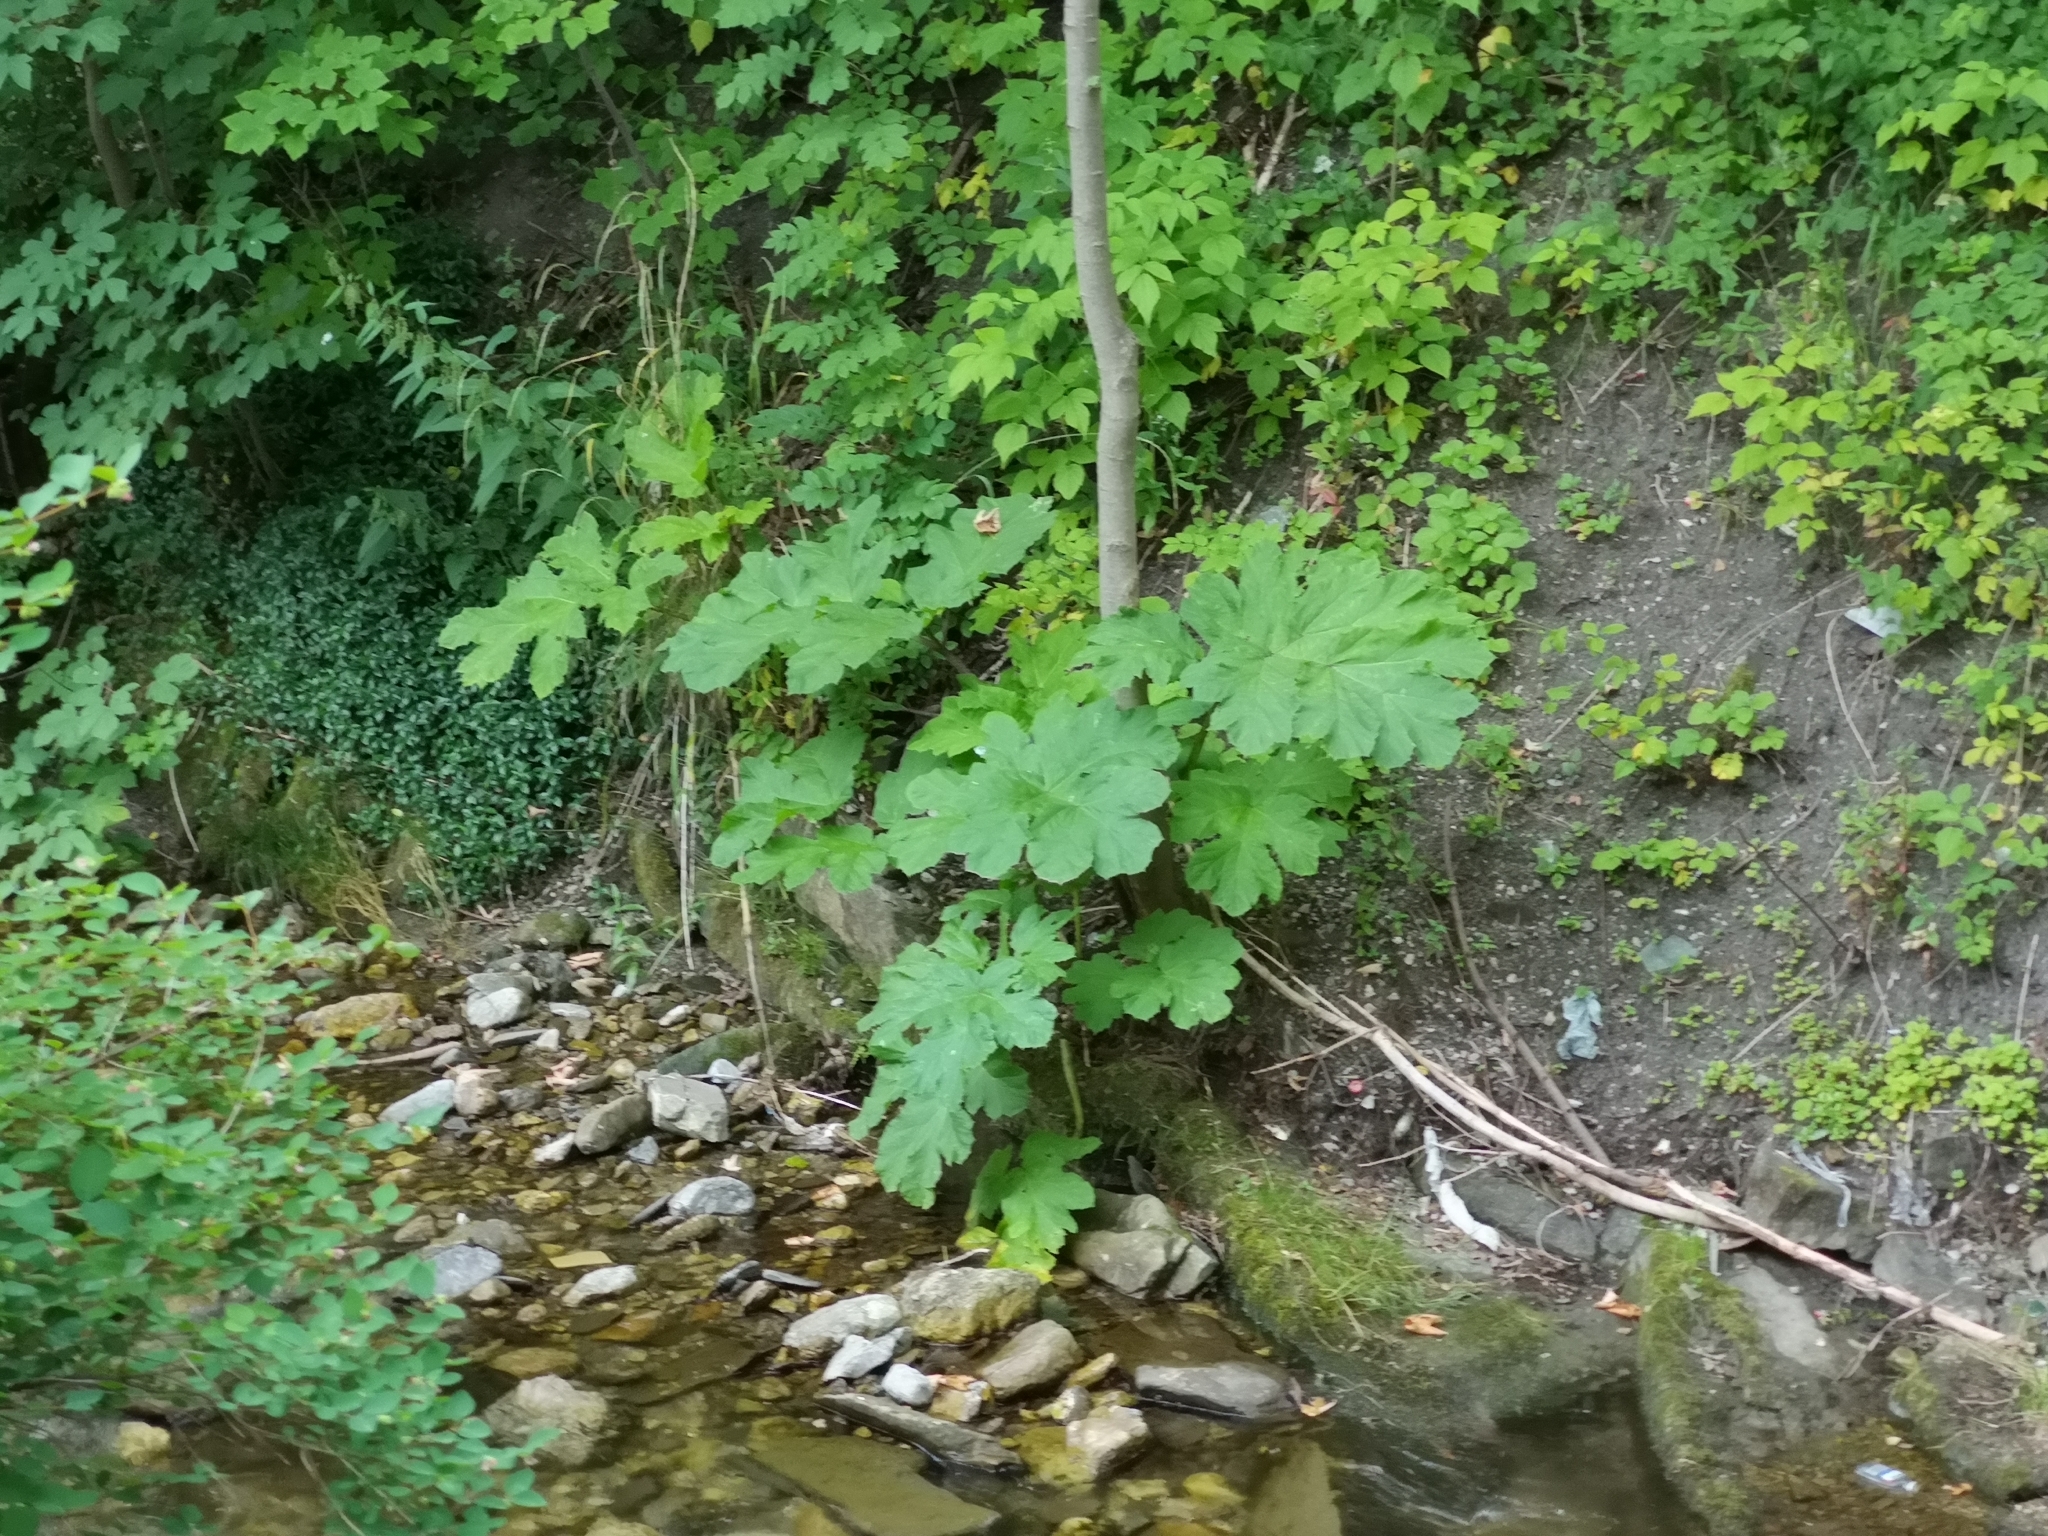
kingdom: Plantae
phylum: Tracheophyta
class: Magnoliopsida
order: Apiales
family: Apiaceae
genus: Heracleum
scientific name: Heracleum mantegazzianum
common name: Giant hogweed
